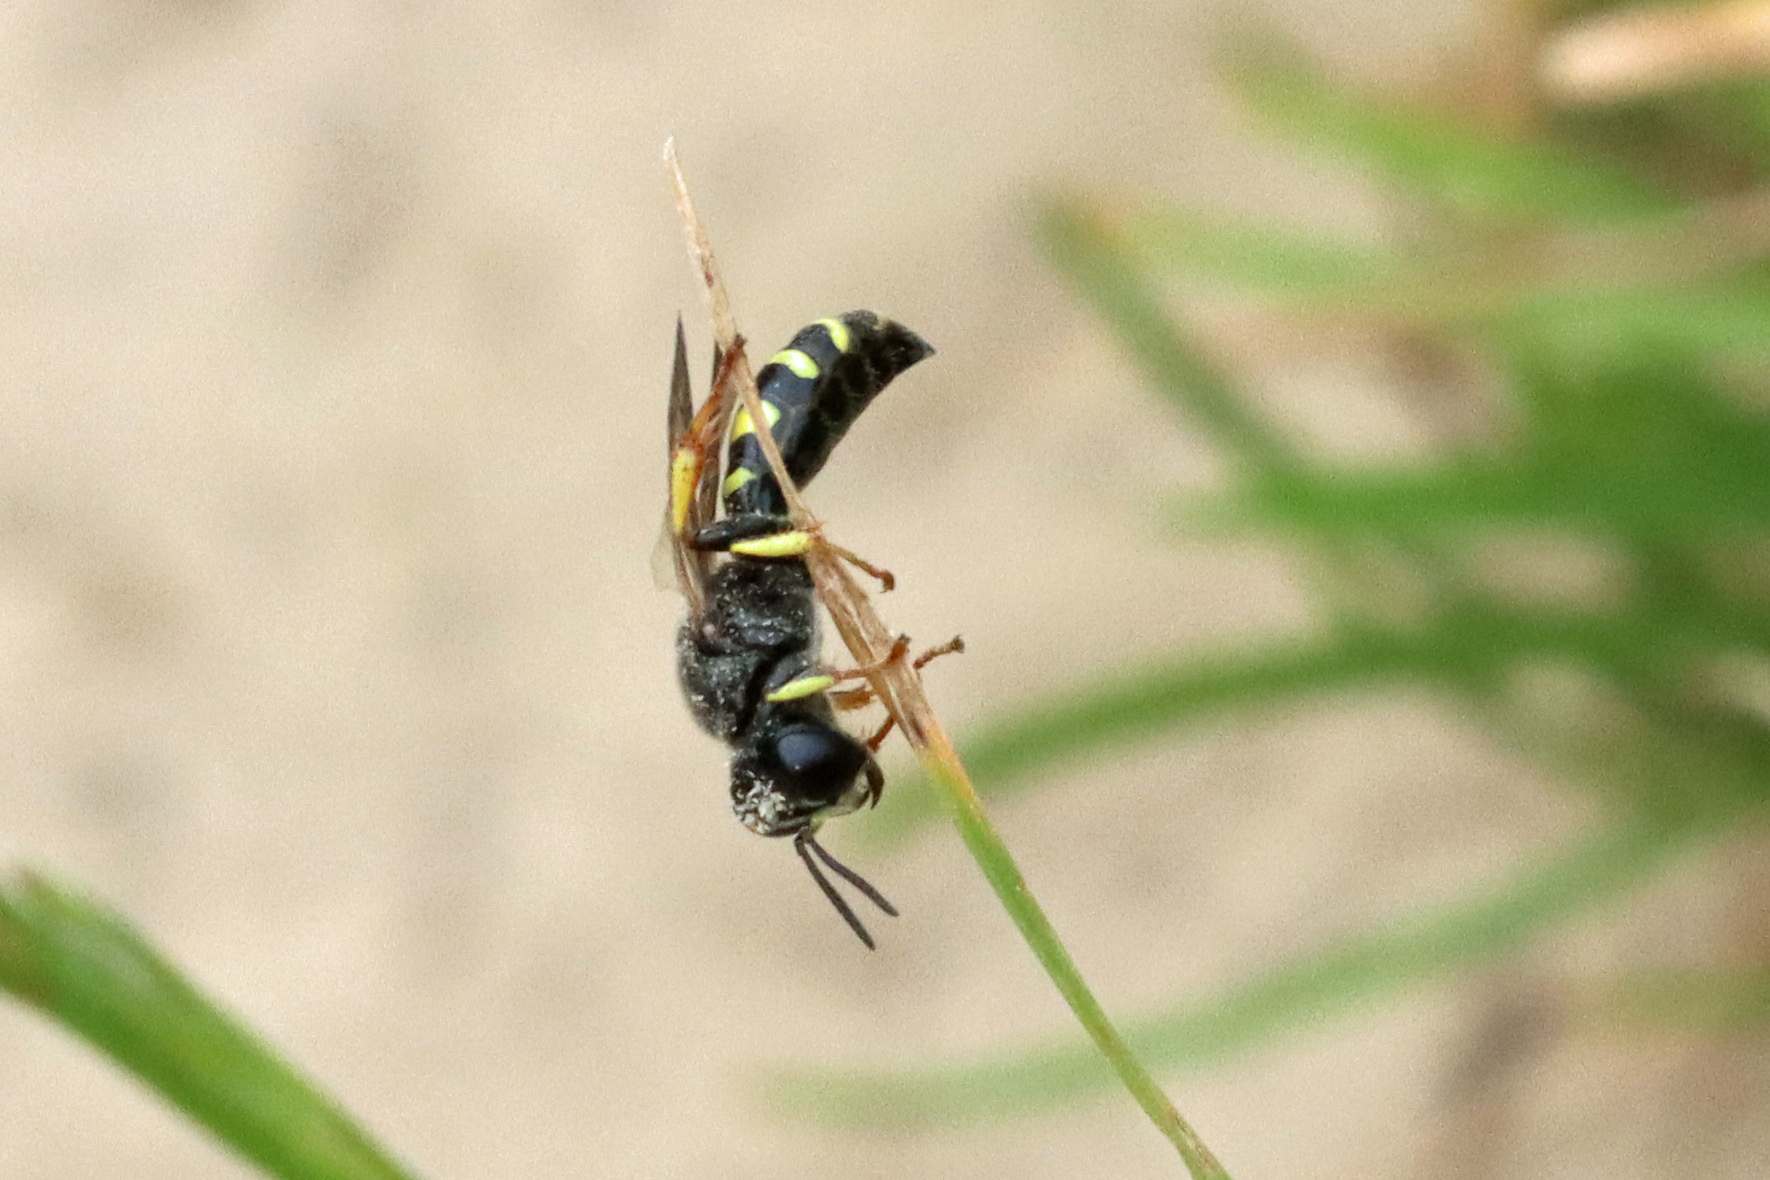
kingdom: Animalia
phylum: Arthropoda
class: Insecta
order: Hymenoptera
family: Crabronidae
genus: Crabro
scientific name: Crabro peltarius
